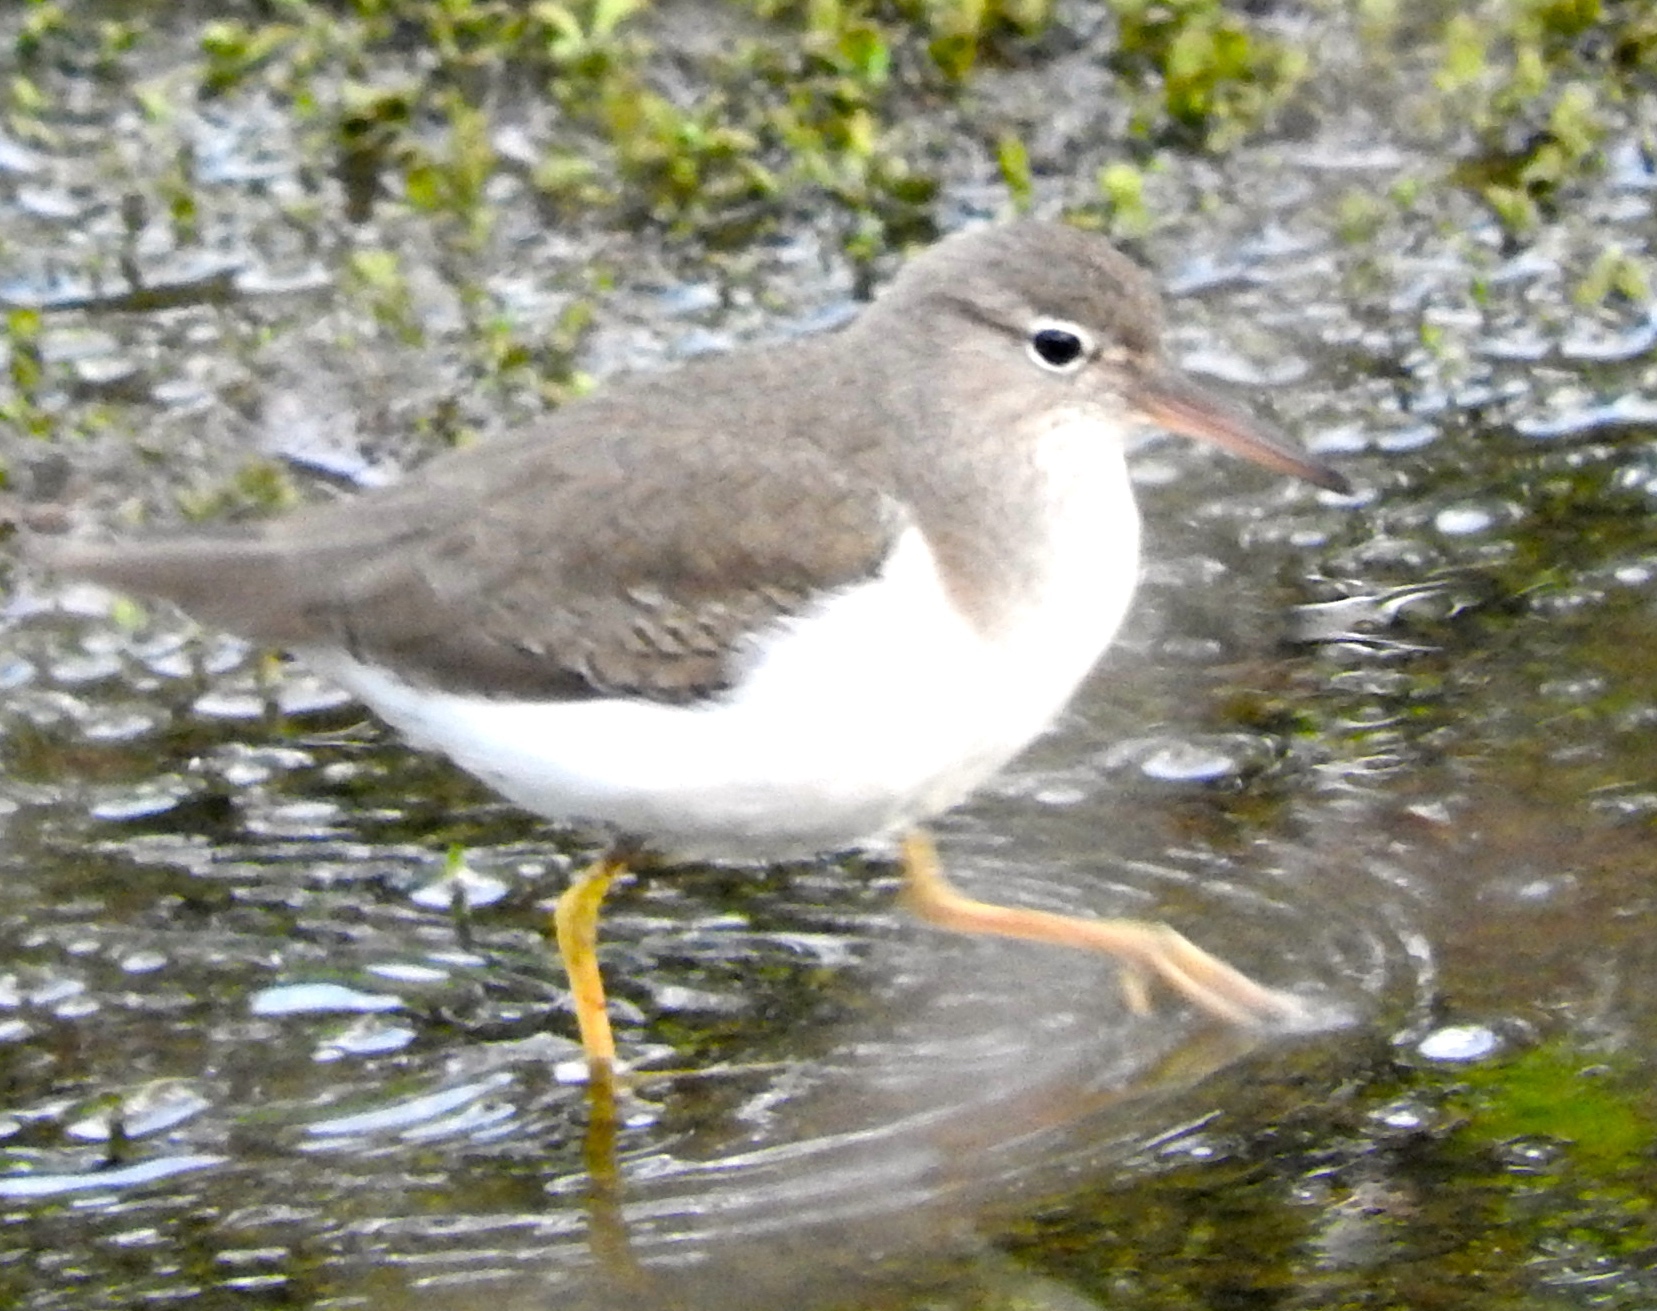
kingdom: Animalia
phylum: Chordata
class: Aves
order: Charadriiformes
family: Scolopacidae
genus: Actitis
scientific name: Actitis macularius
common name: Spotted sandpiper
